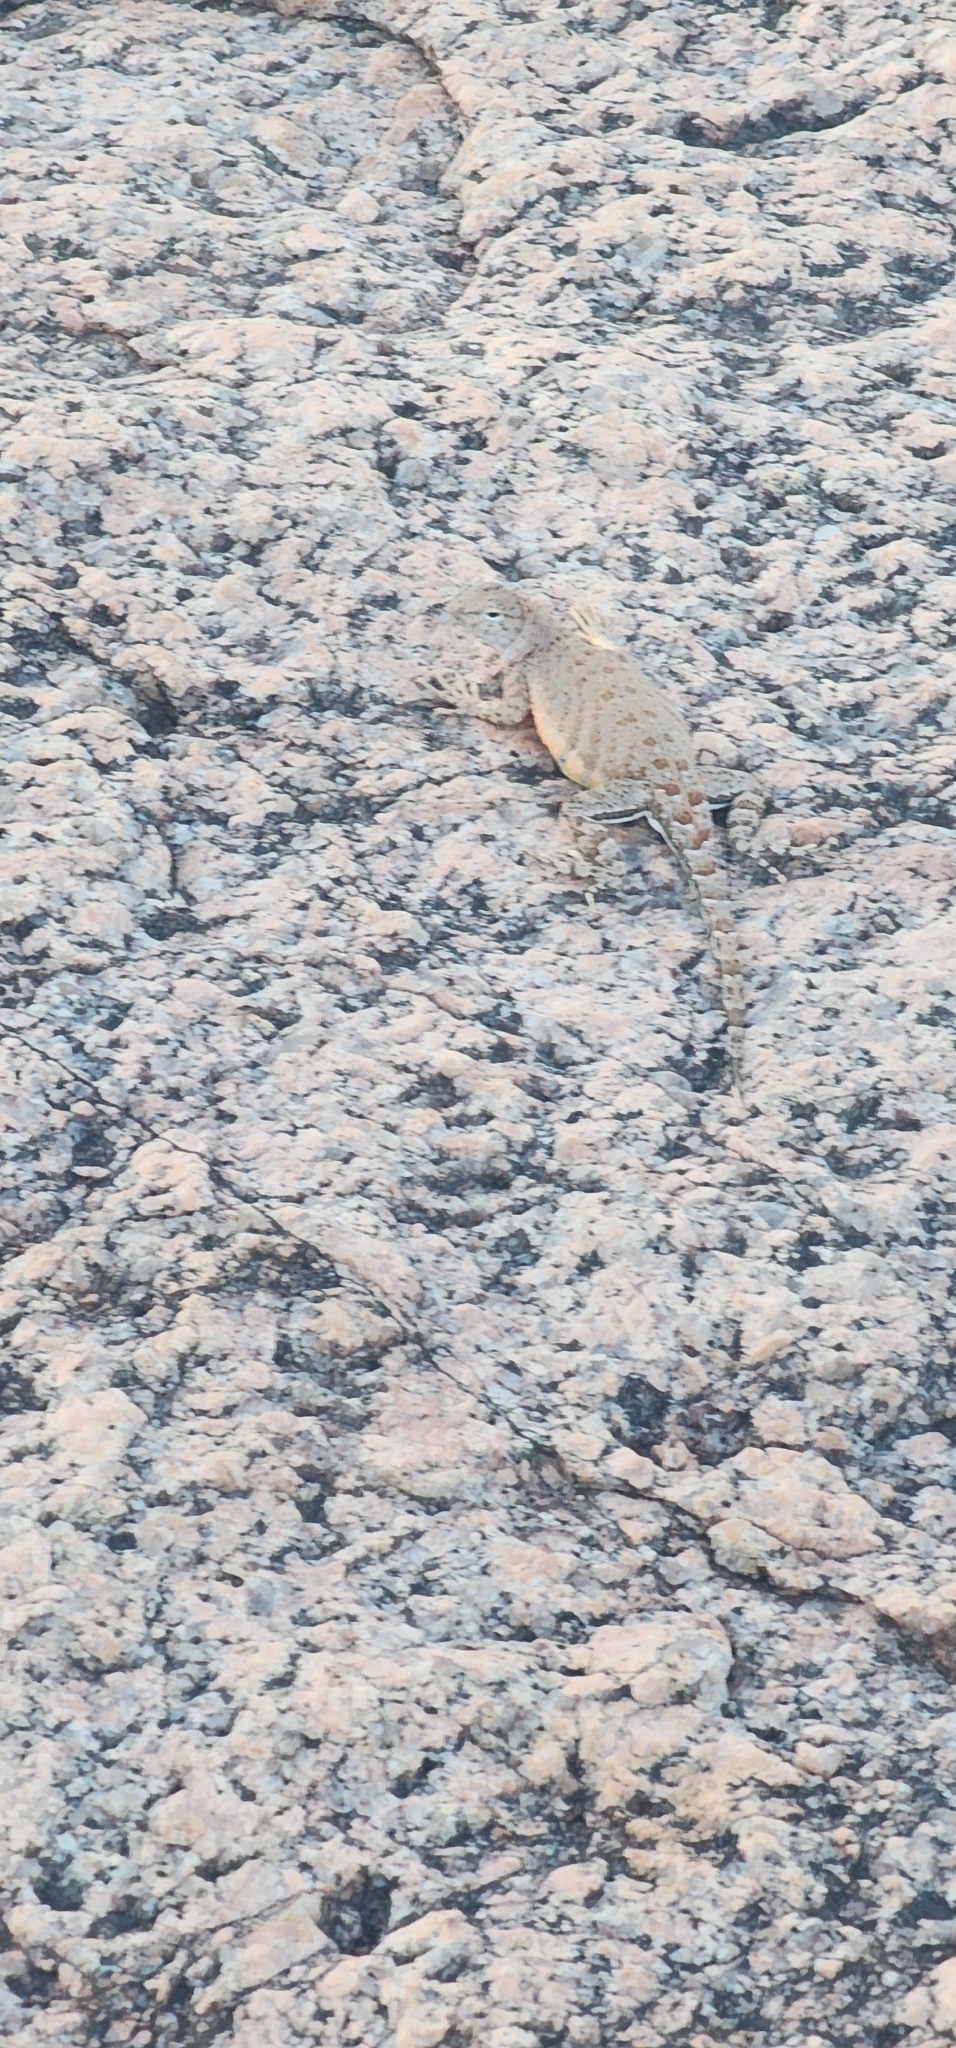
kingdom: Animalia
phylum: Chordata
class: Squamata
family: Phrynosomatidae
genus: Cophosaurus
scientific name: Cophosaurus texanus
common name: Greater earless lizard
